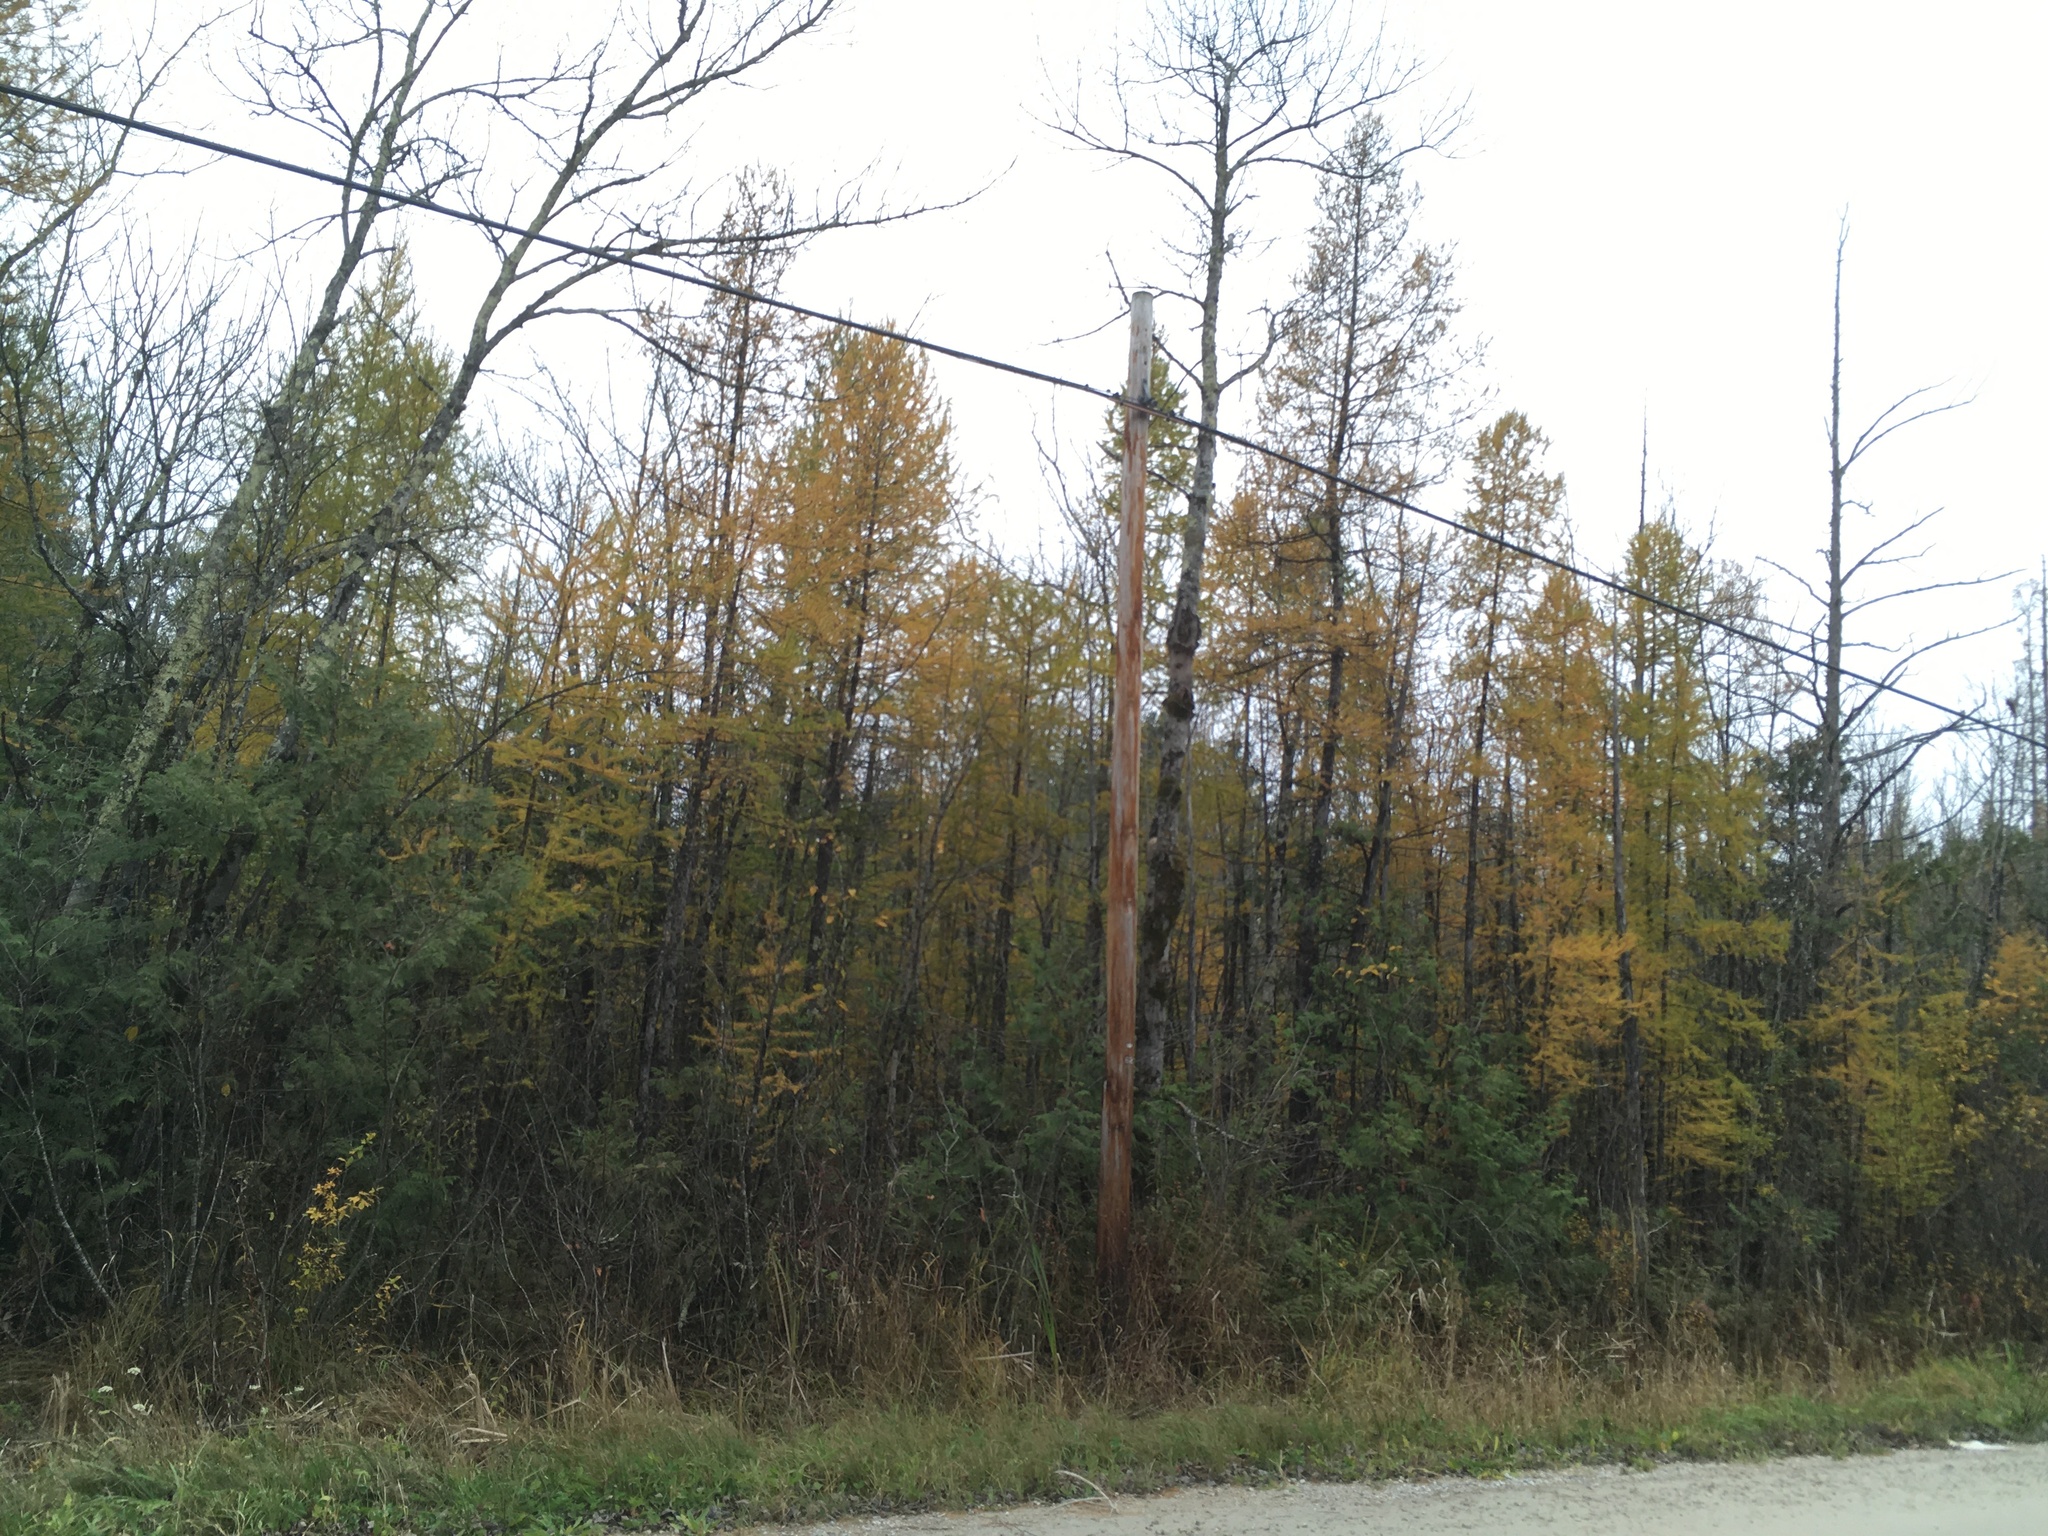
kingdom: Plantae
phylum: Tracheophyta
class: Pinopsida
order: Pinales
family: Pinaceae
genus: Larix
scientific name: Larix laricina
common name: American larch
